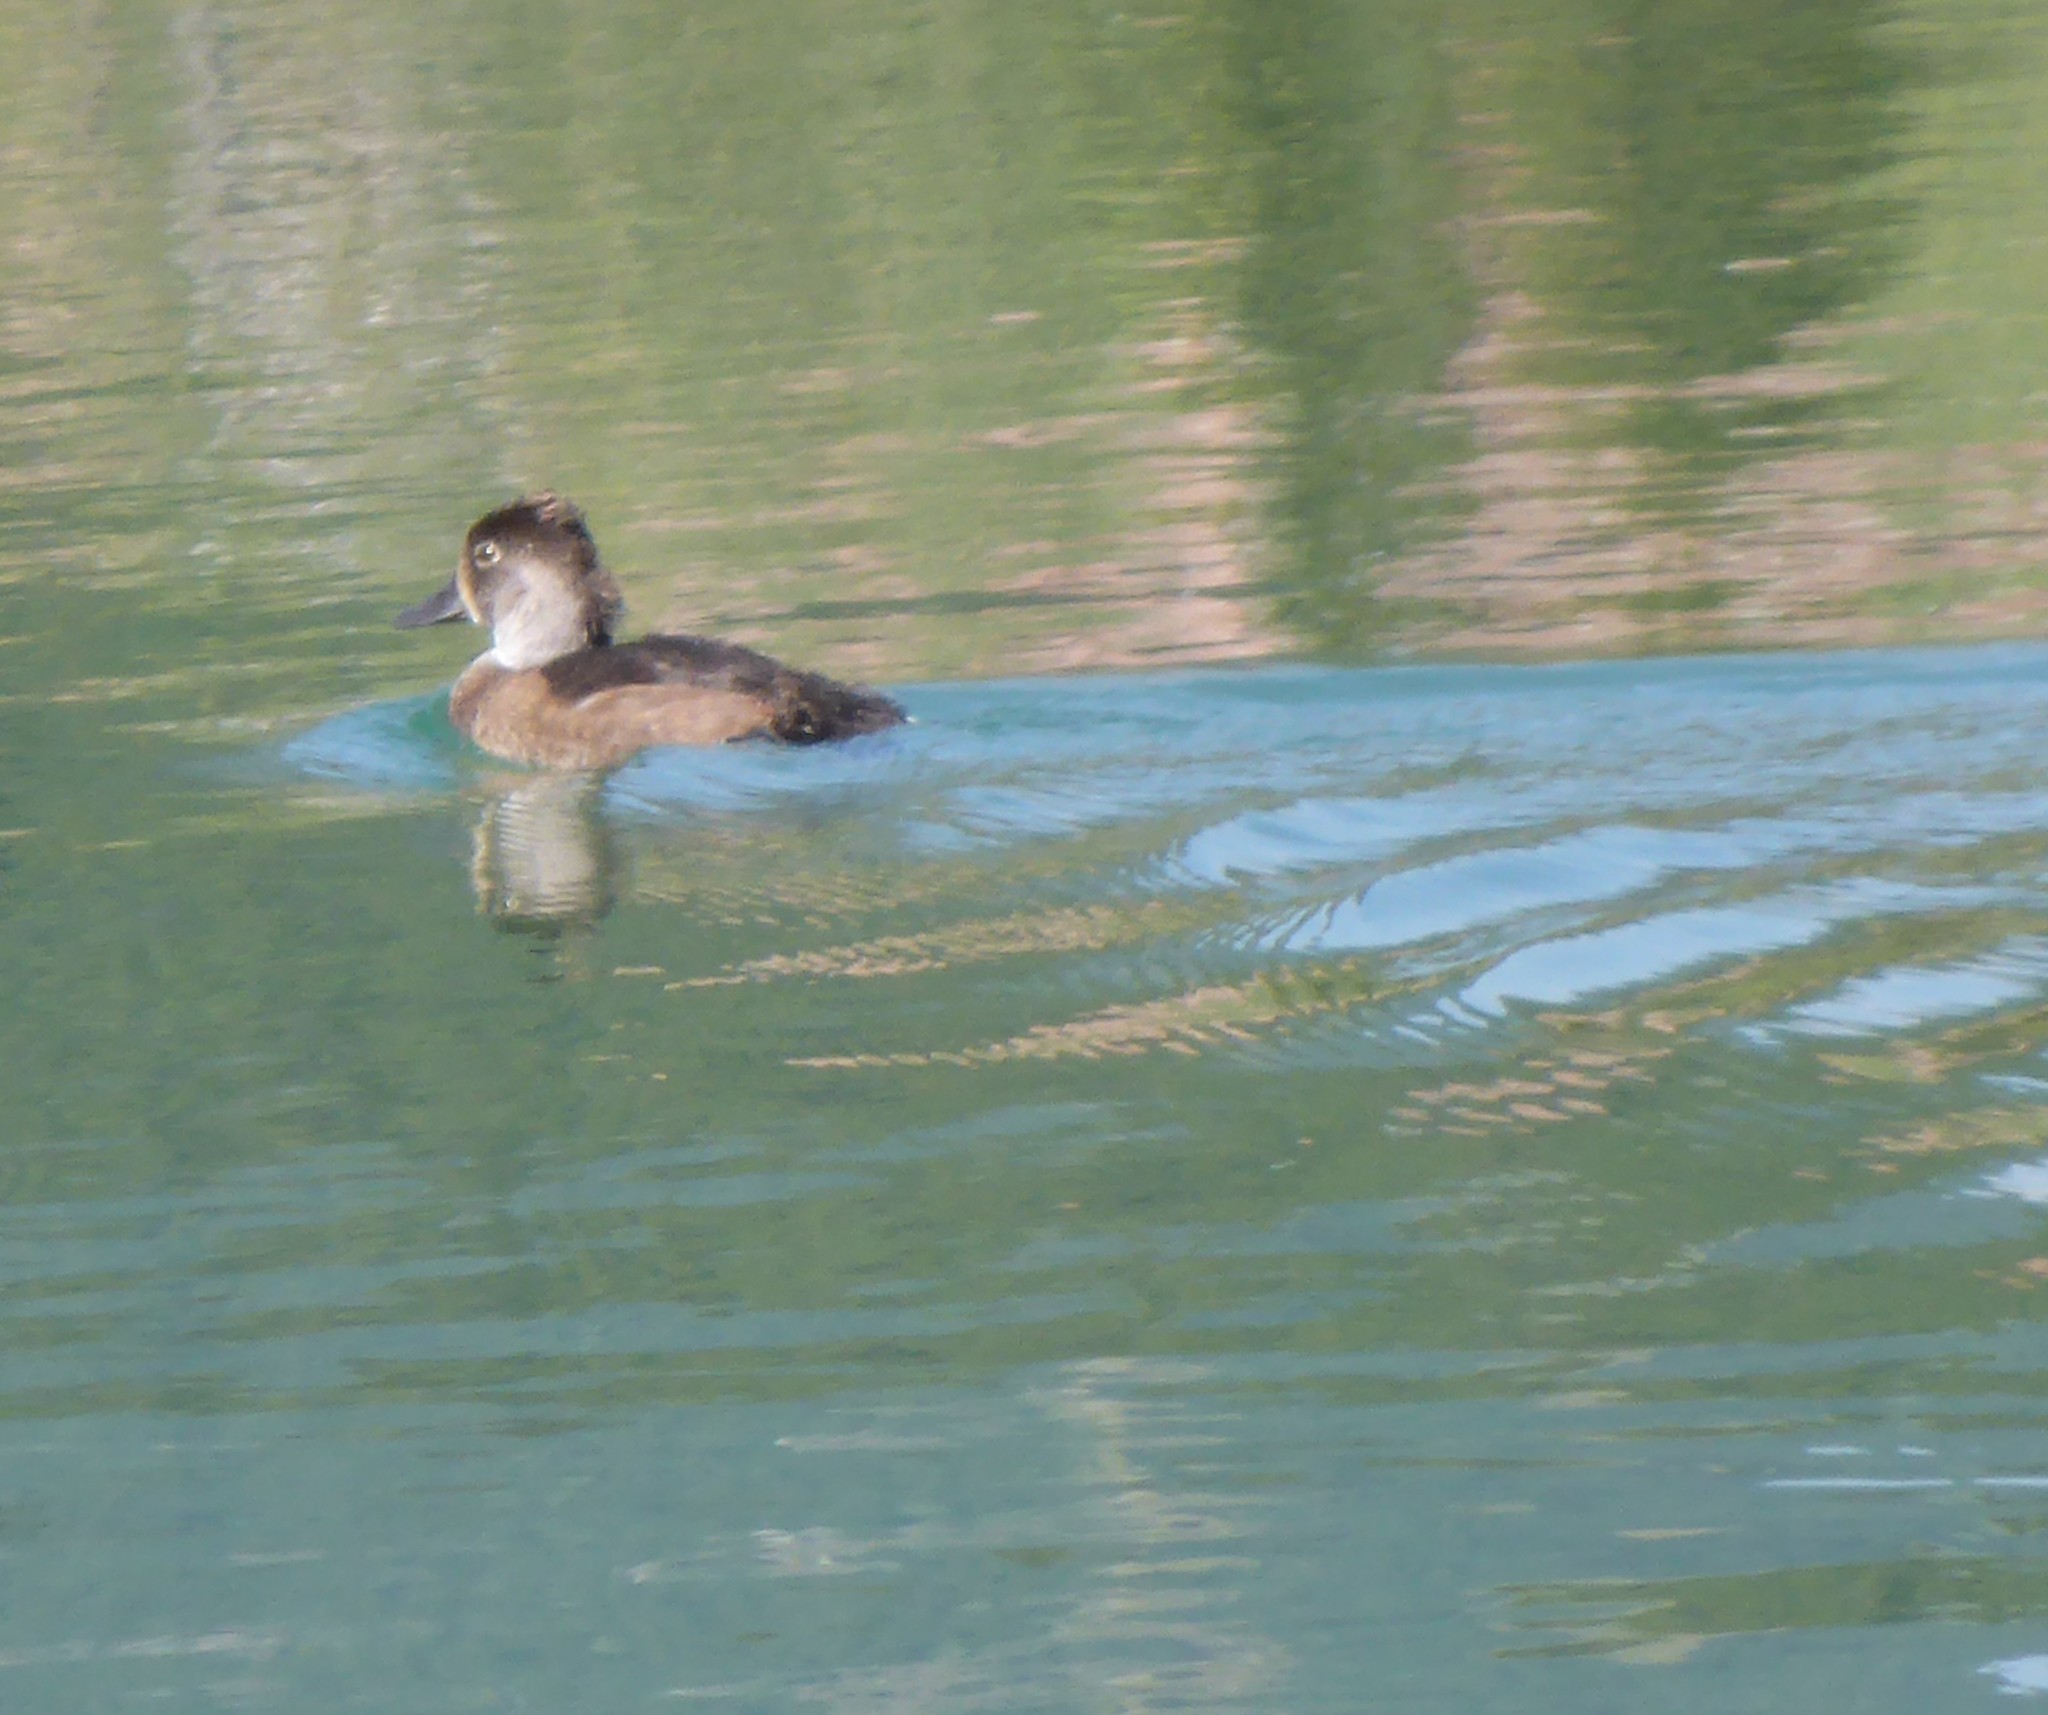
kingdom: Animalia
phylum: Chordata
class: Aves
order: Anseriformes
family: Anatidae
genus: Aythya
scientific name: Aythya collaris
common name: Ring-necked duck
